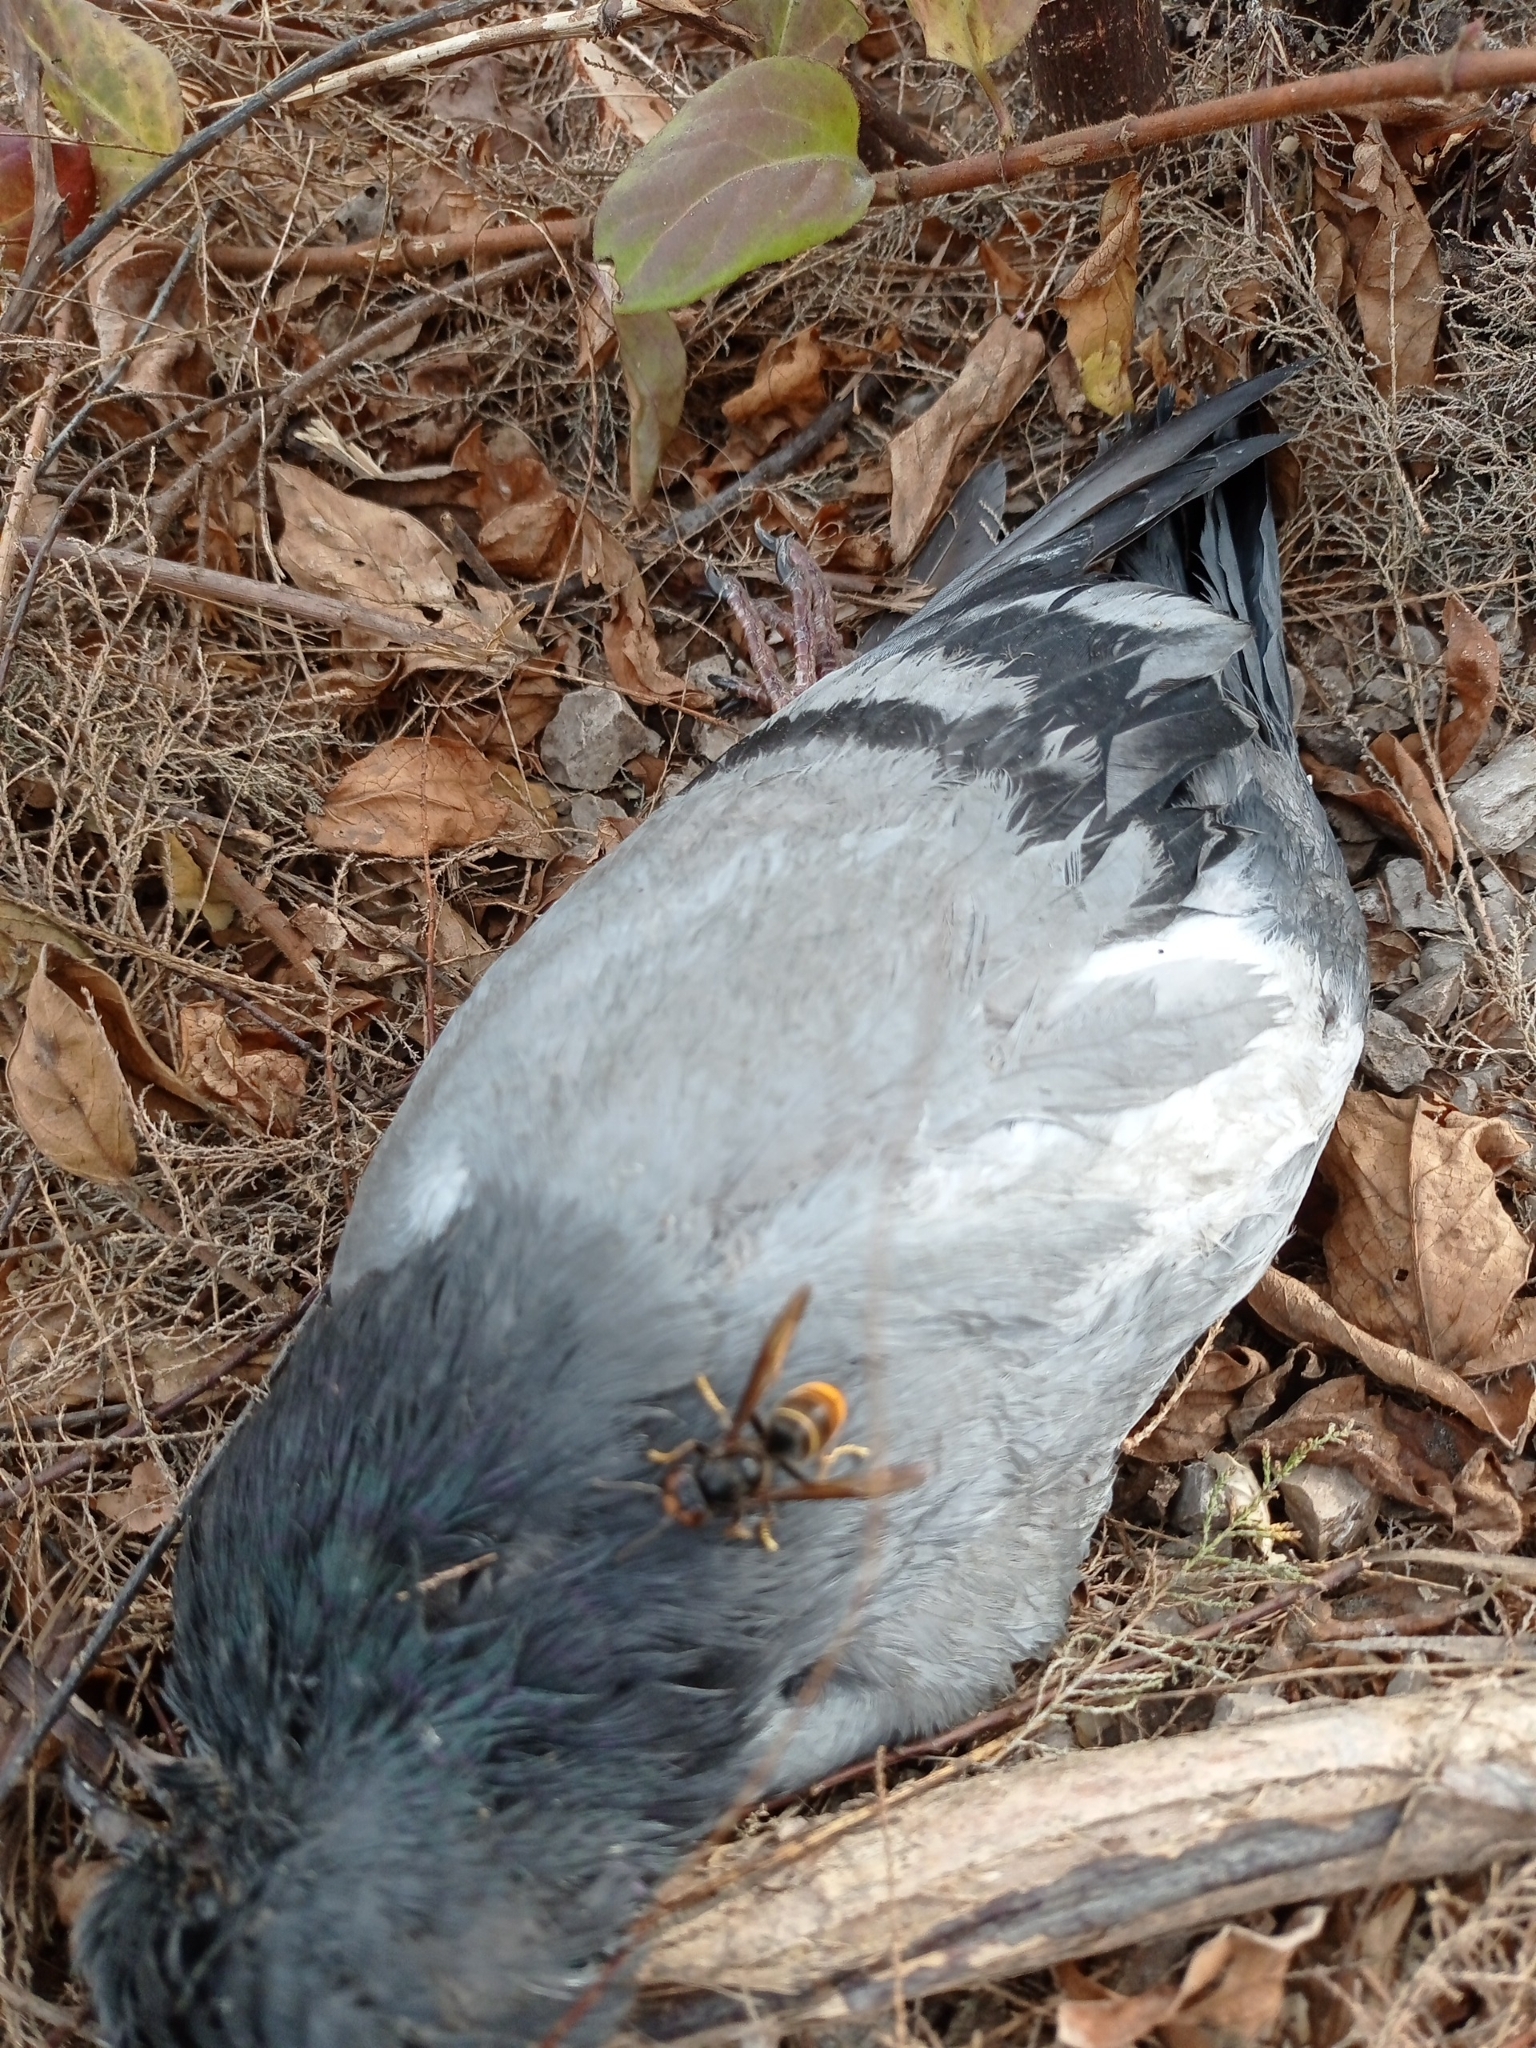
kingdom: Animalia
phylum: Arthropoda
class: Insecta
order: Hymenoptera
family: Vespidae
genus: Vespa
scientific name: Vespa velutina
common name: Asian hornet
